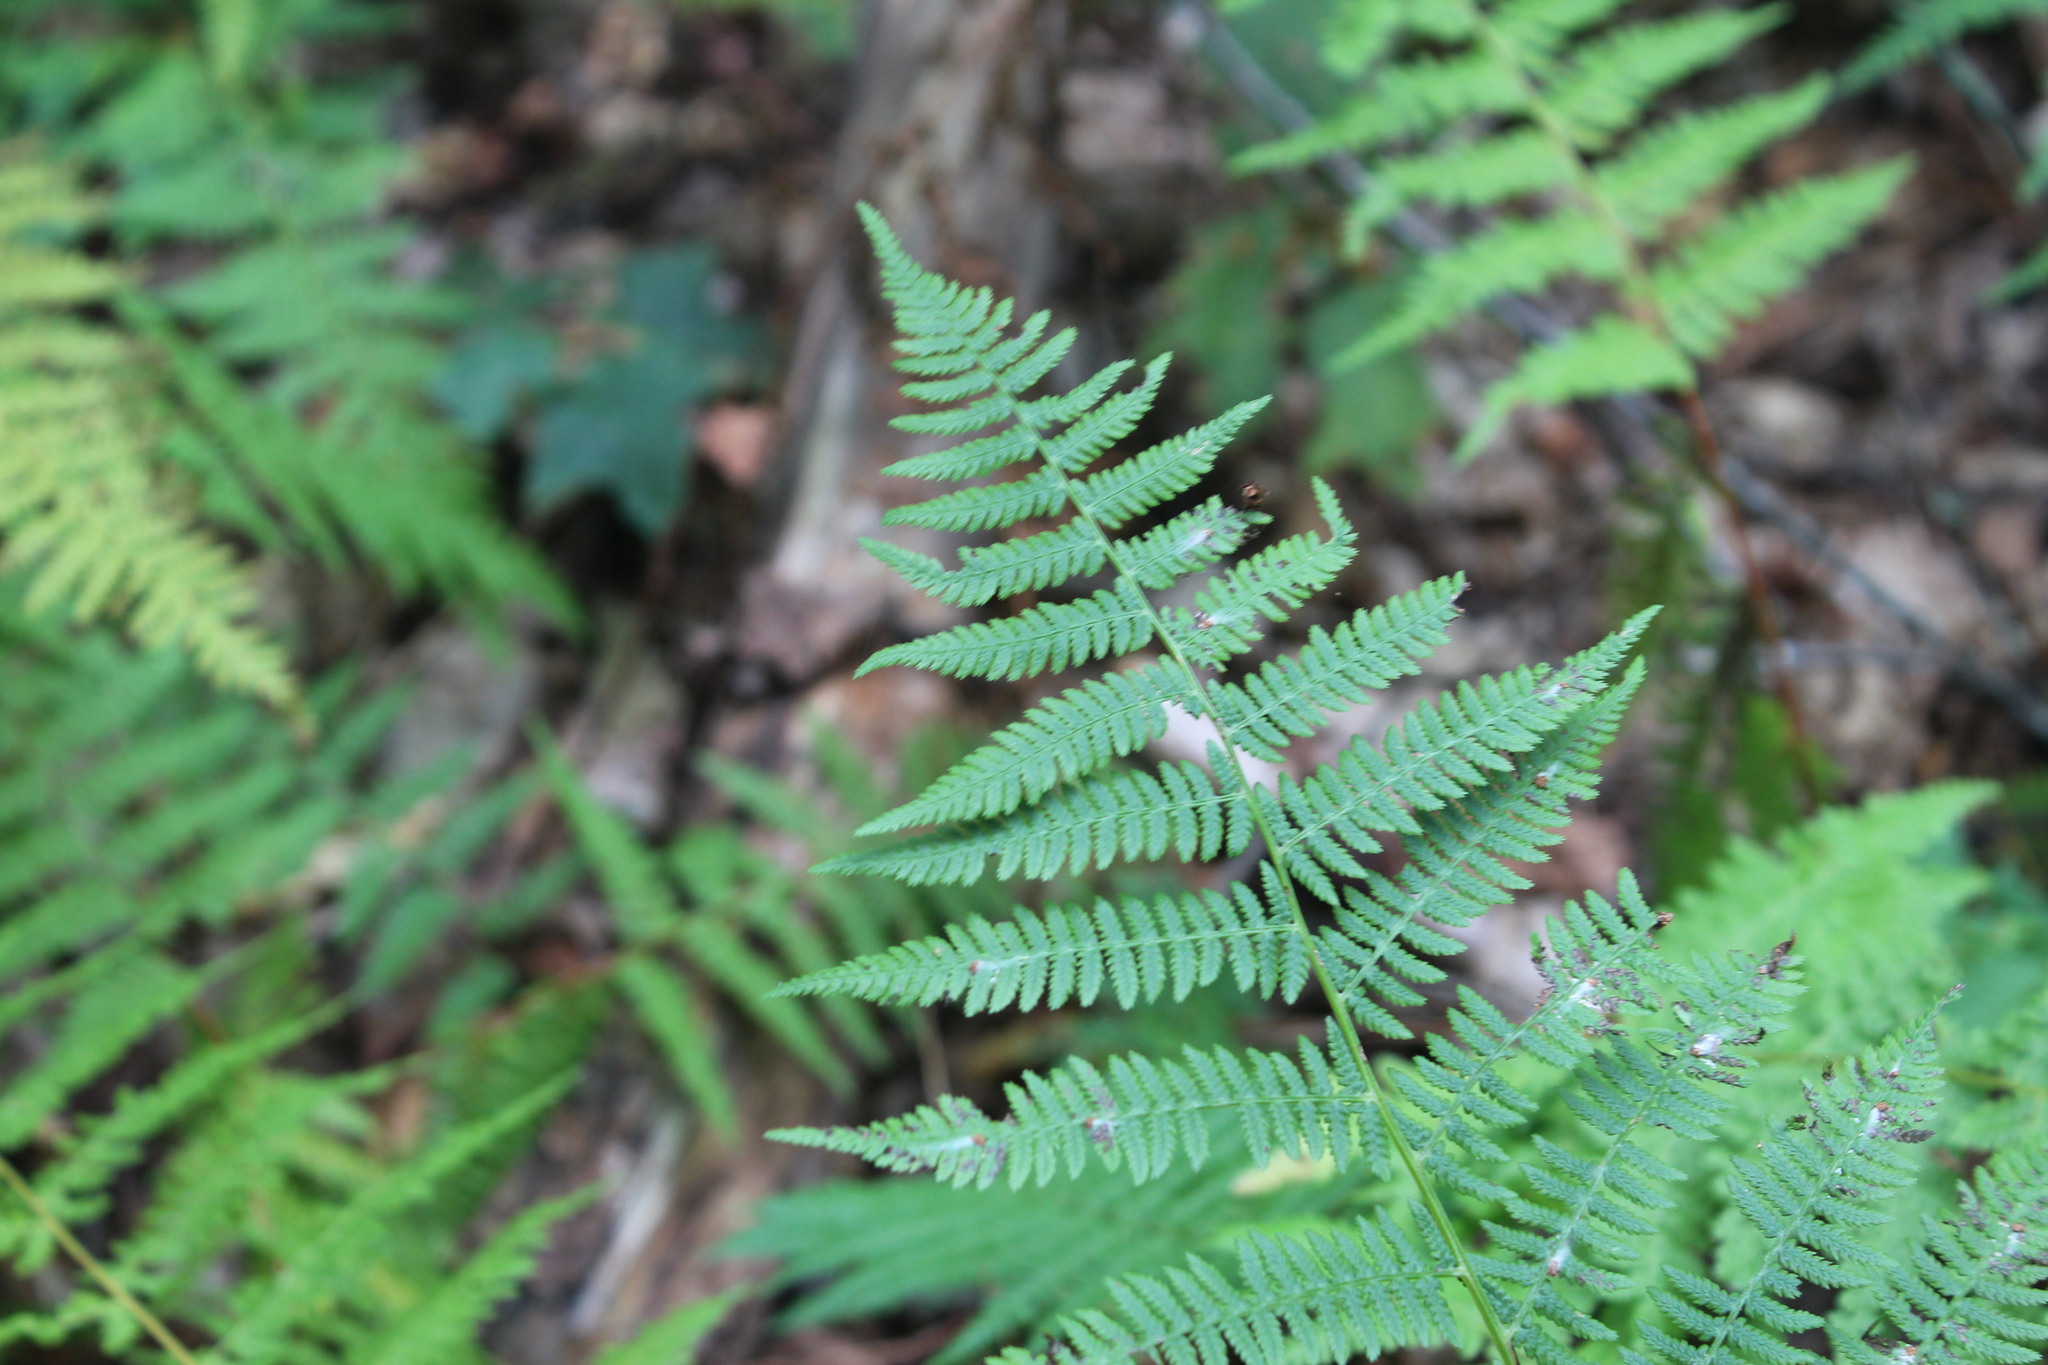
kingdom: Plantae
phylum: Tracheophyta
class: Polypodiopsida
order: Polypodiales
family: Athyriaceae
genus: Athyrium
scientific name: Athyrium angustum
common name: Northern lady fern
